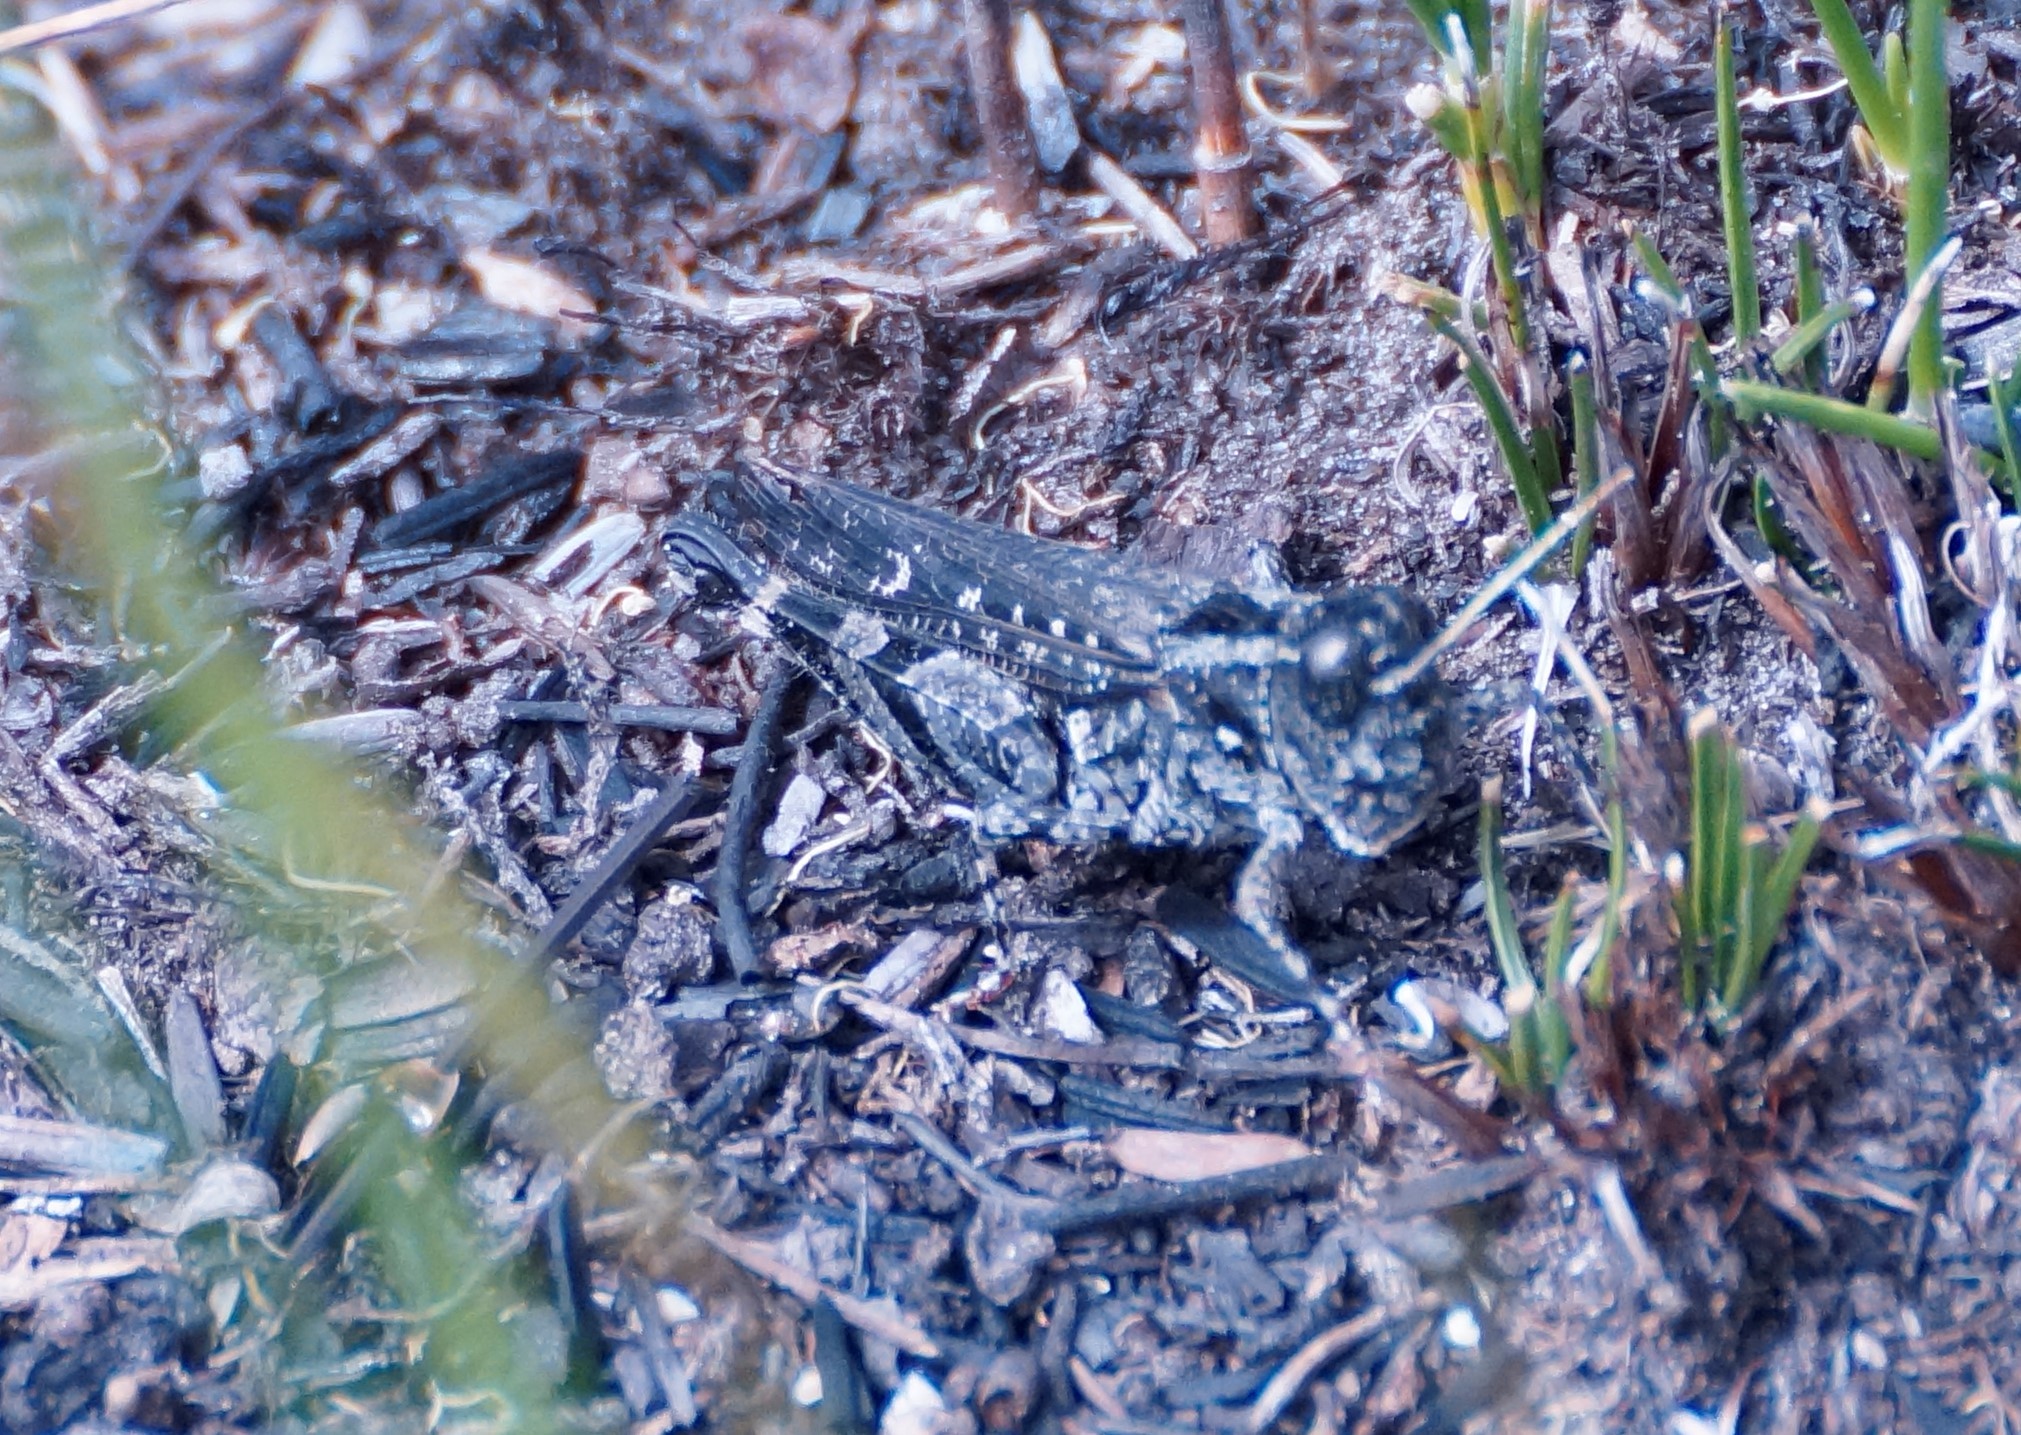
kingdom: Animalia
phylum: Arthropoda
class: Insecta
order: Orthoptera
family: Acrididae
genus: Exarna
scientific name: Exarna includens
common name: Red-legged exarna
